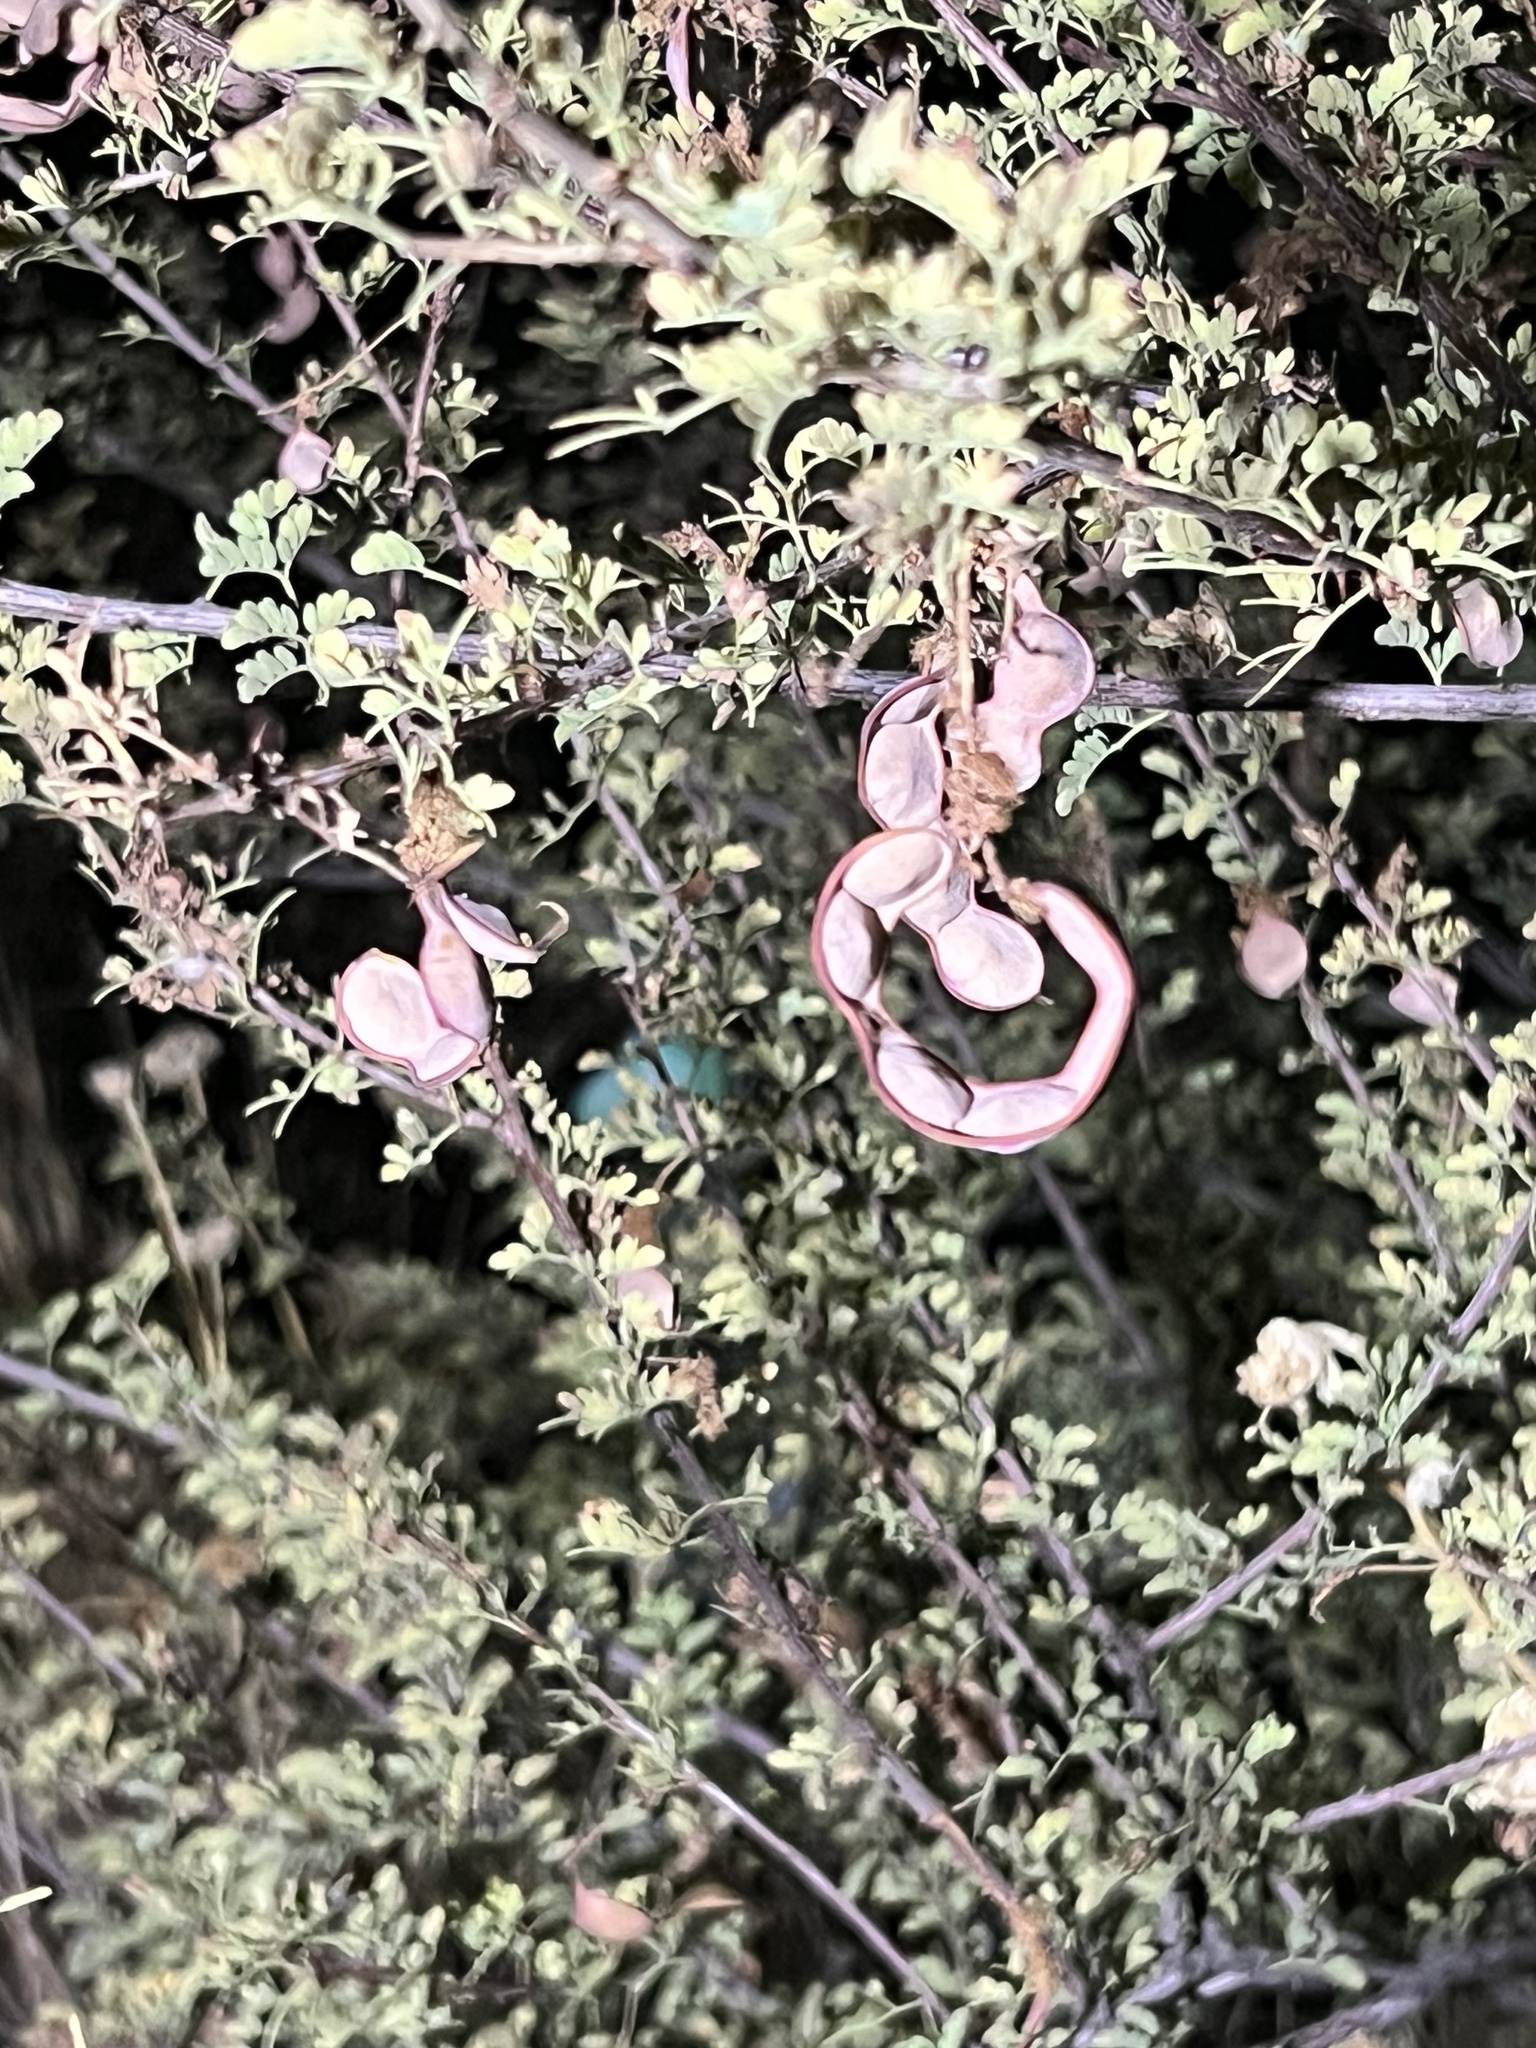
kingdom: Plantae
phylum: Tracheophyta
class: Magnoliopsida
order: Fabales
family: Fabaceae
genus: Senegalia
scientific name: Senegalia greggii
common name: Texas-mimosa
